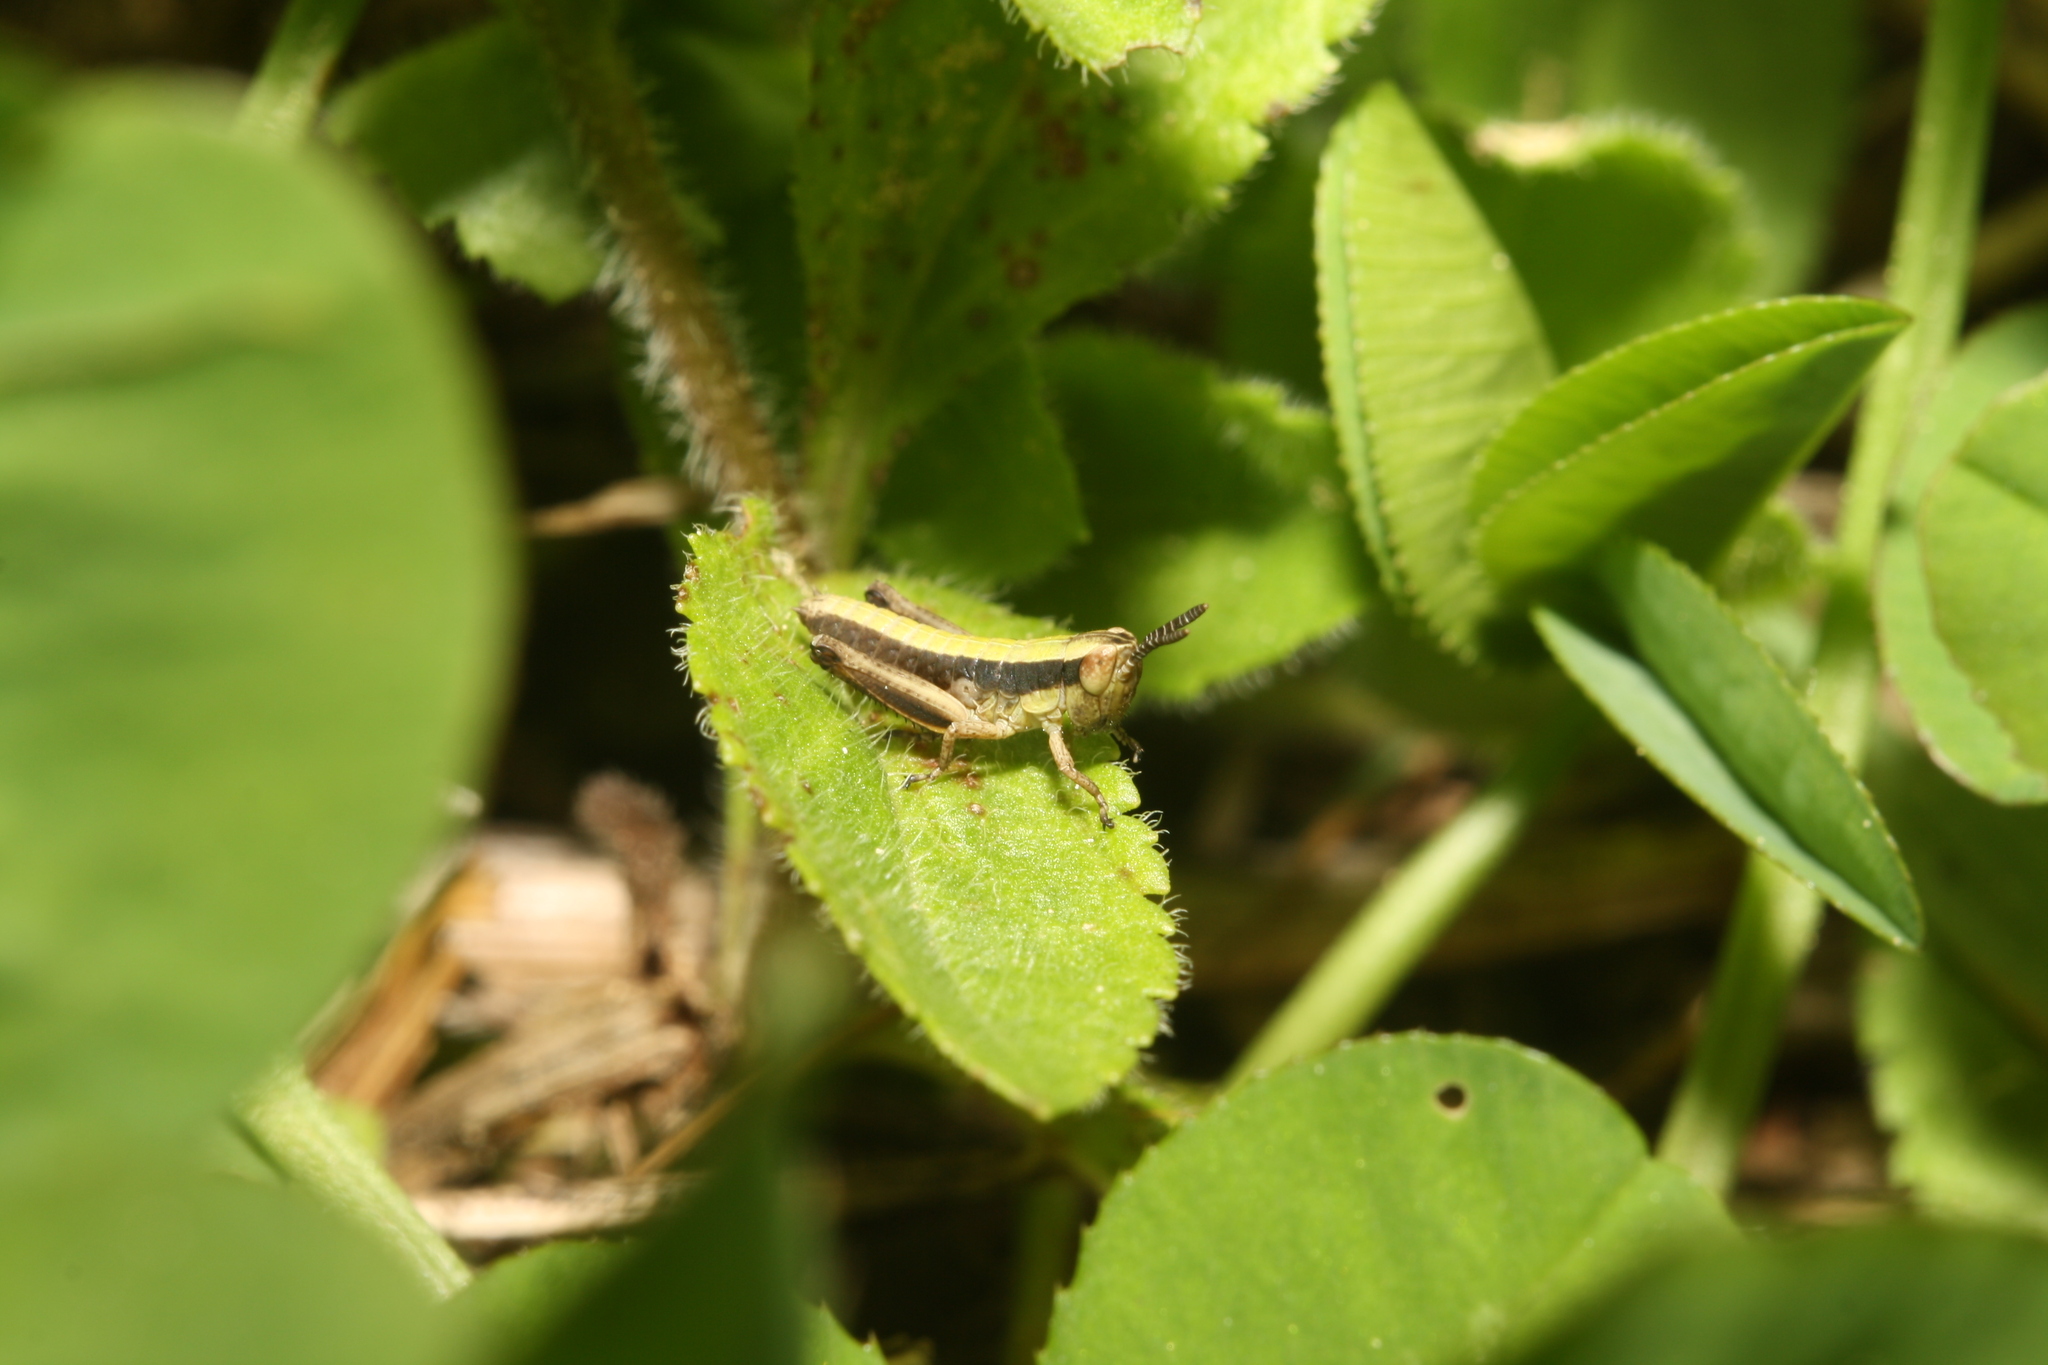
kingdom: Animalia
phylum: Arthropoda
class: Insecta
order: Orthoptera
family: Acrididae
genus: Pseudochorthippus
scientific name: Pseudochorthippus parallelus
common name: Meadow grasshopper
